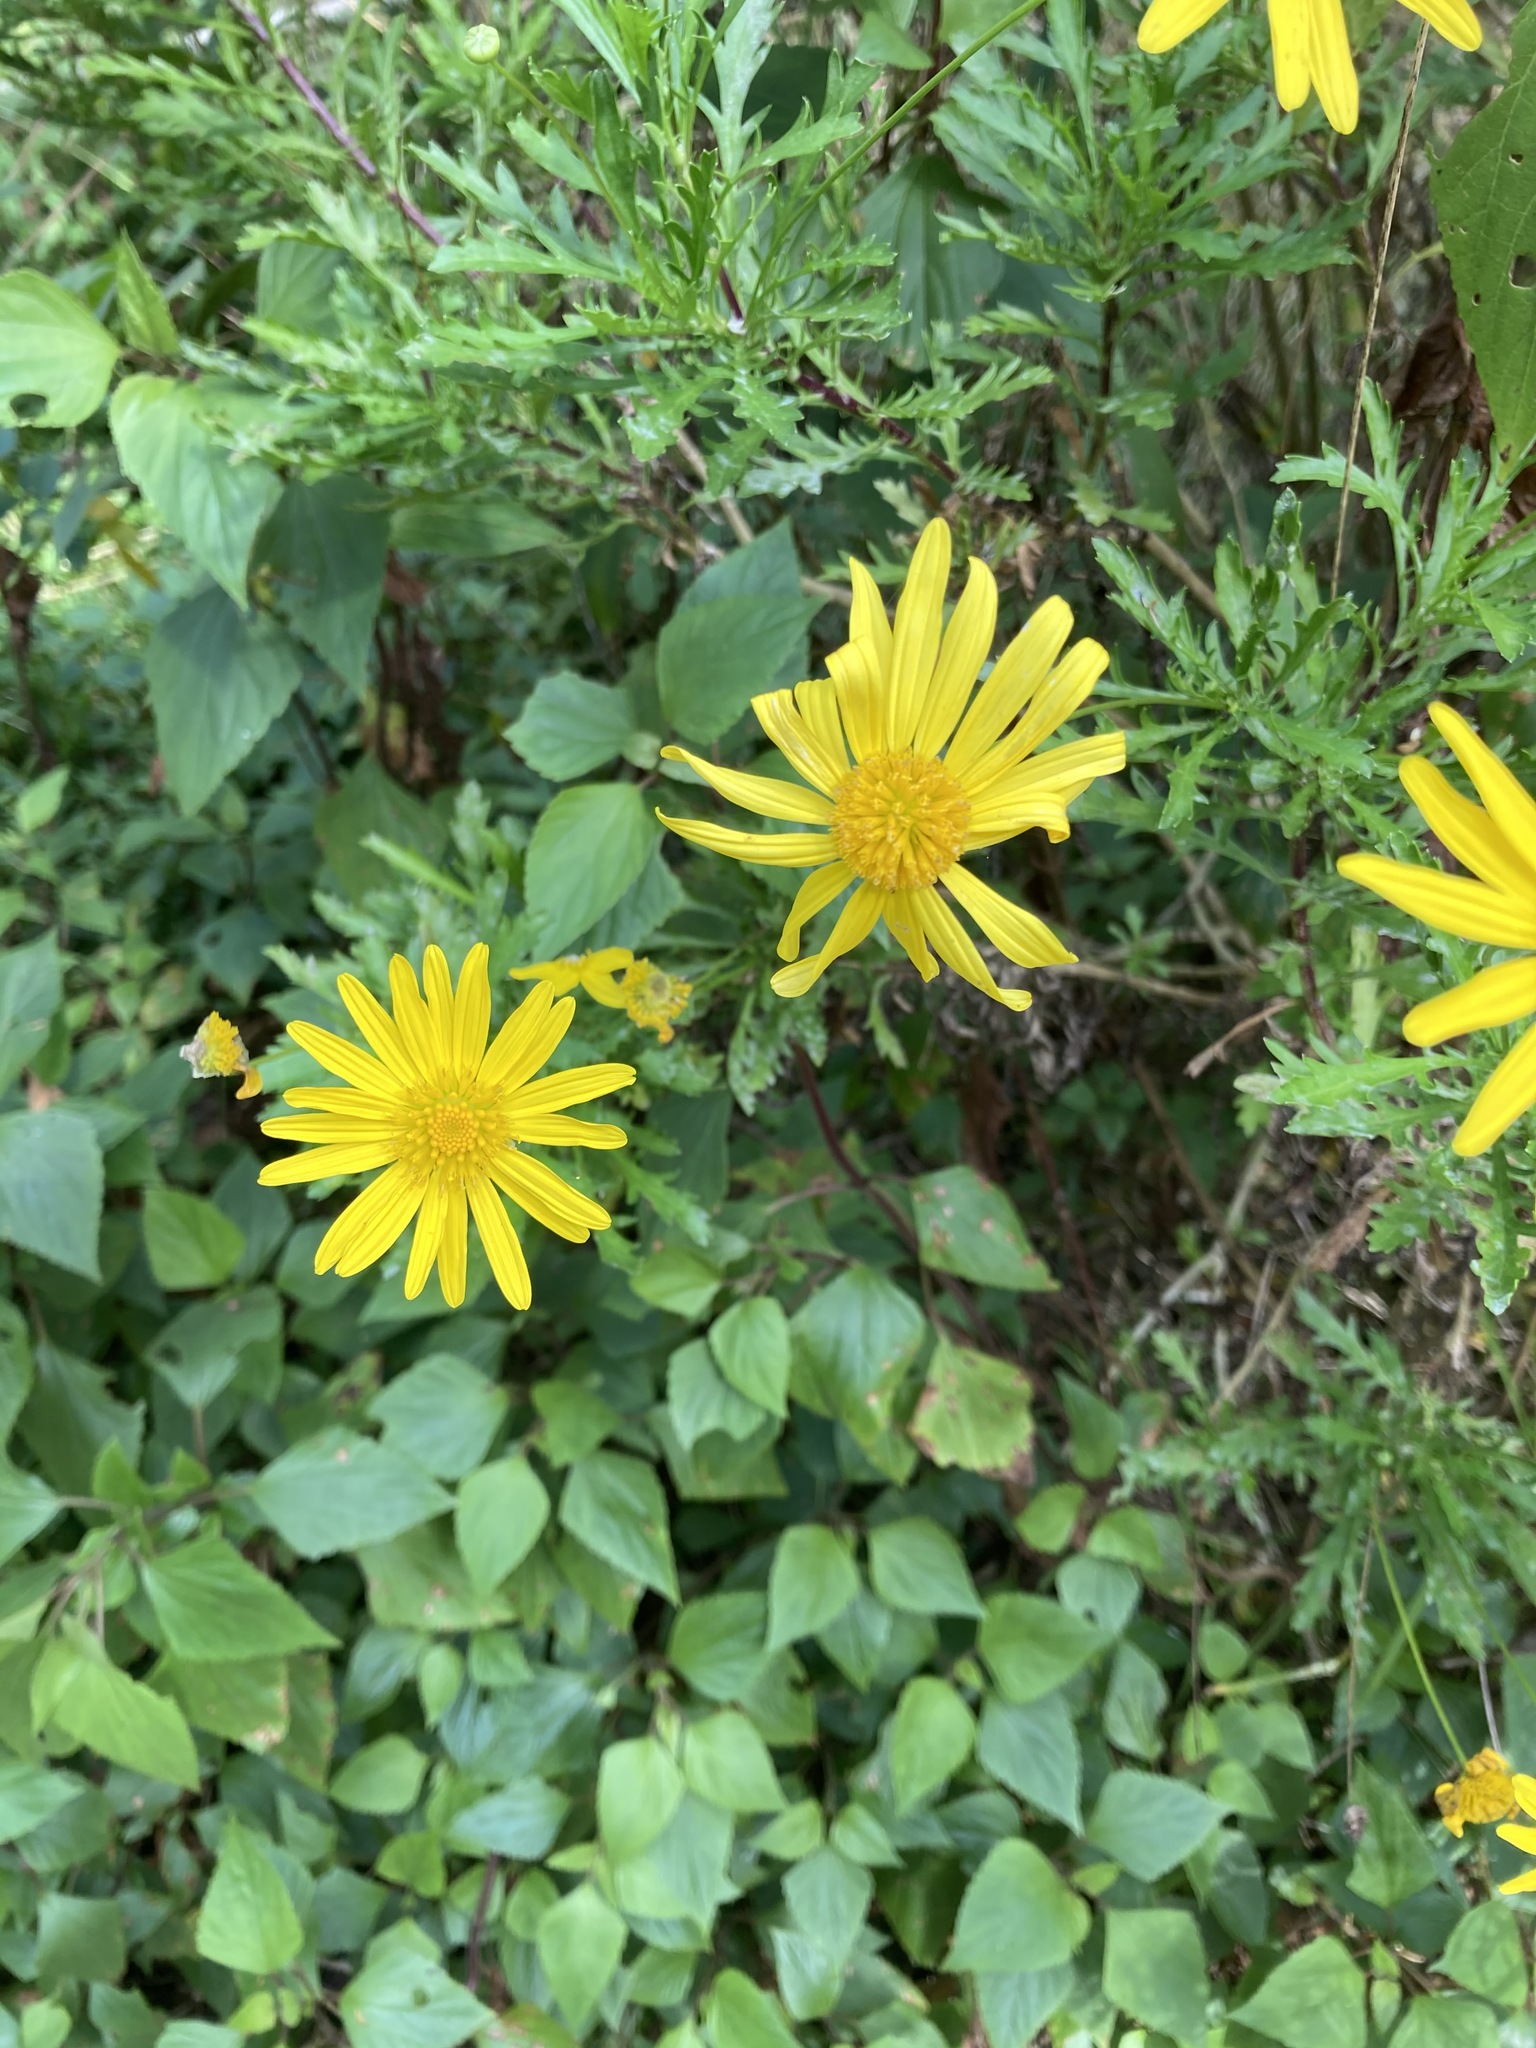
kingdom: Plantae
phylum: Tracheophyta
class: Magnoliopsida
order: Asterales
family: Asteraceae
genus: Euryops
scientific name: Euryops chrysanthemoides
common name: Bull's eye
